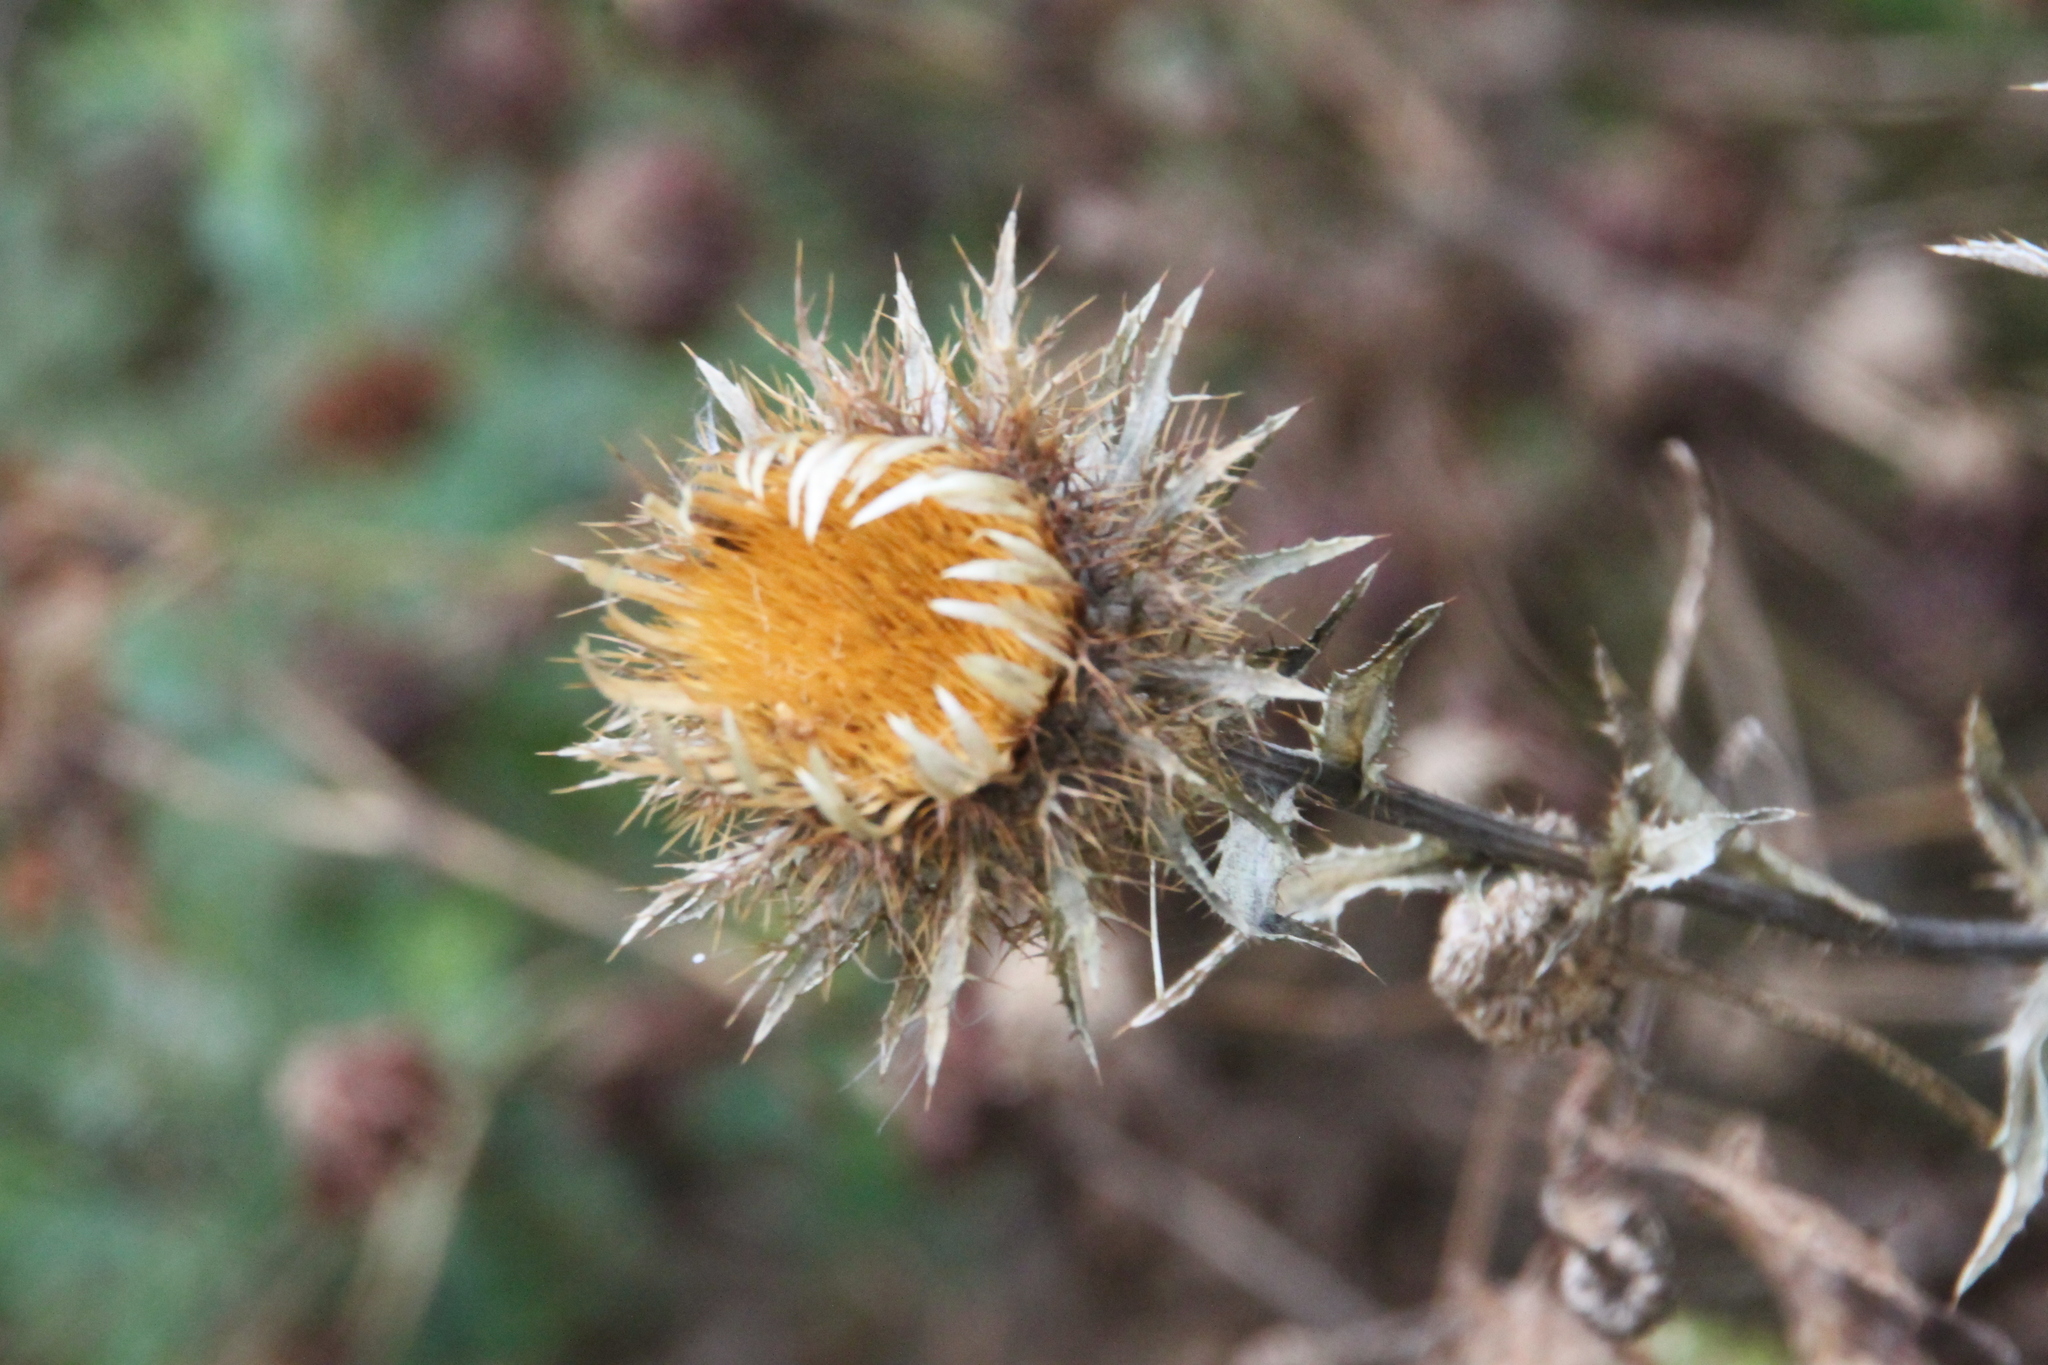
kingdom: Plantae
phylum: Tracheophyta
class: Magnoliopsida
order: Asterales
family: Asteraceae
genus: Carlina
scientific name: Carlina biebersteinii
